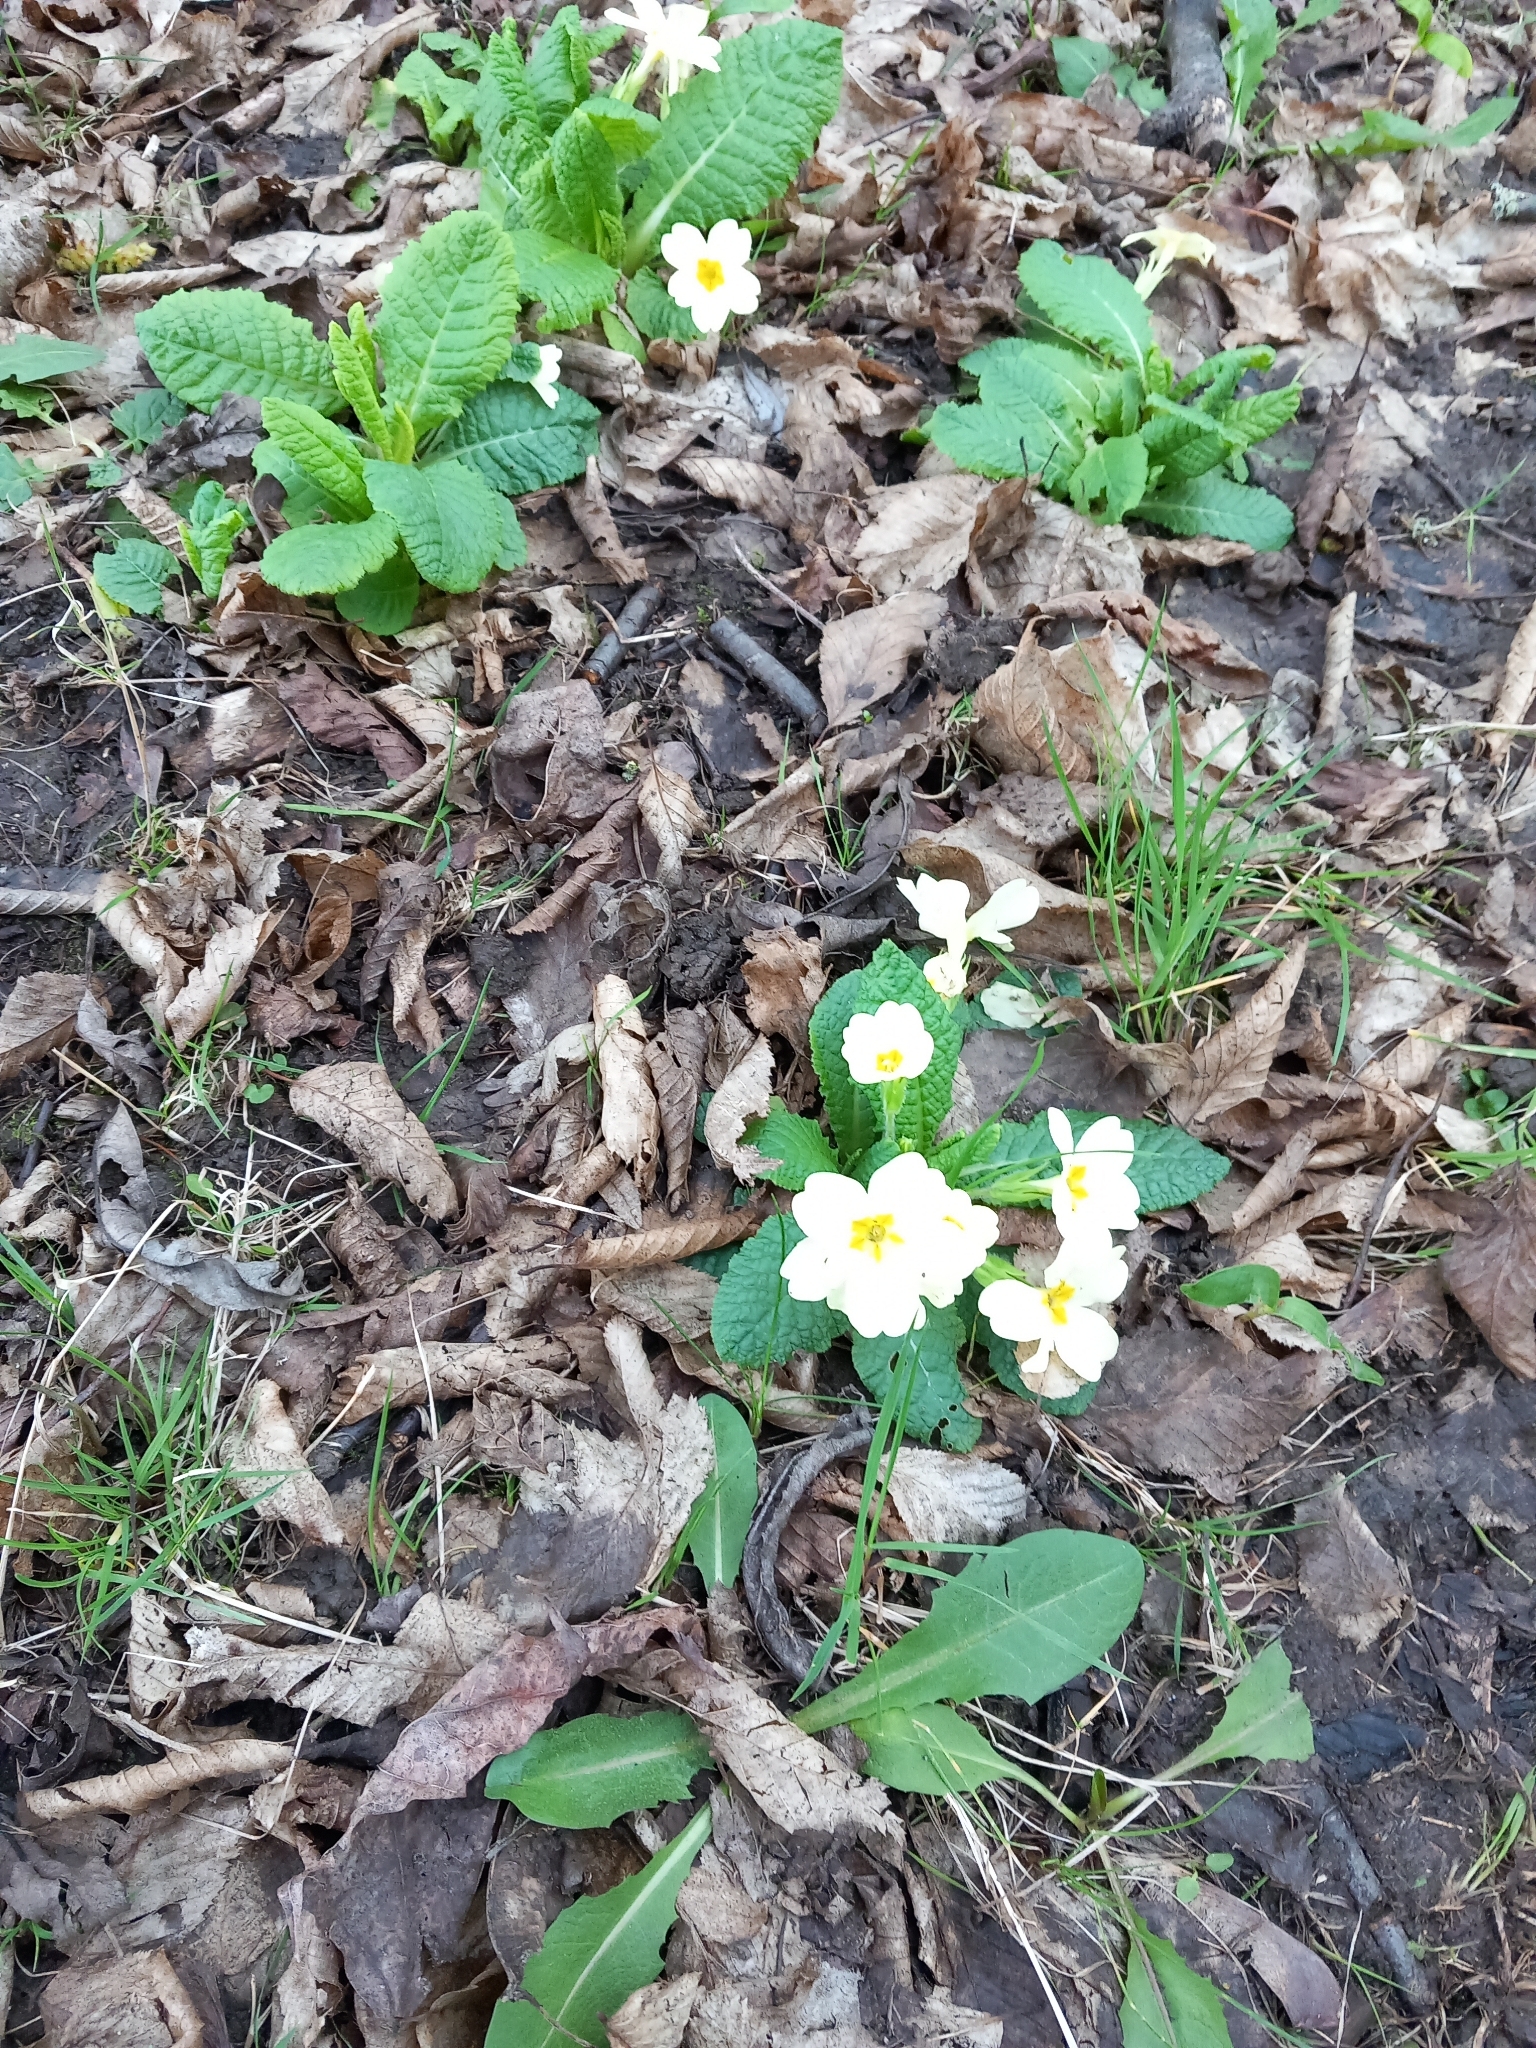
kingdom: Plantae
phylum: Tracheophyta
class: Magnoliopsida
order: Ericales
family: Primulaceae
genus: Primula
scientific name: Primula vulgaris
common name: Primrose
